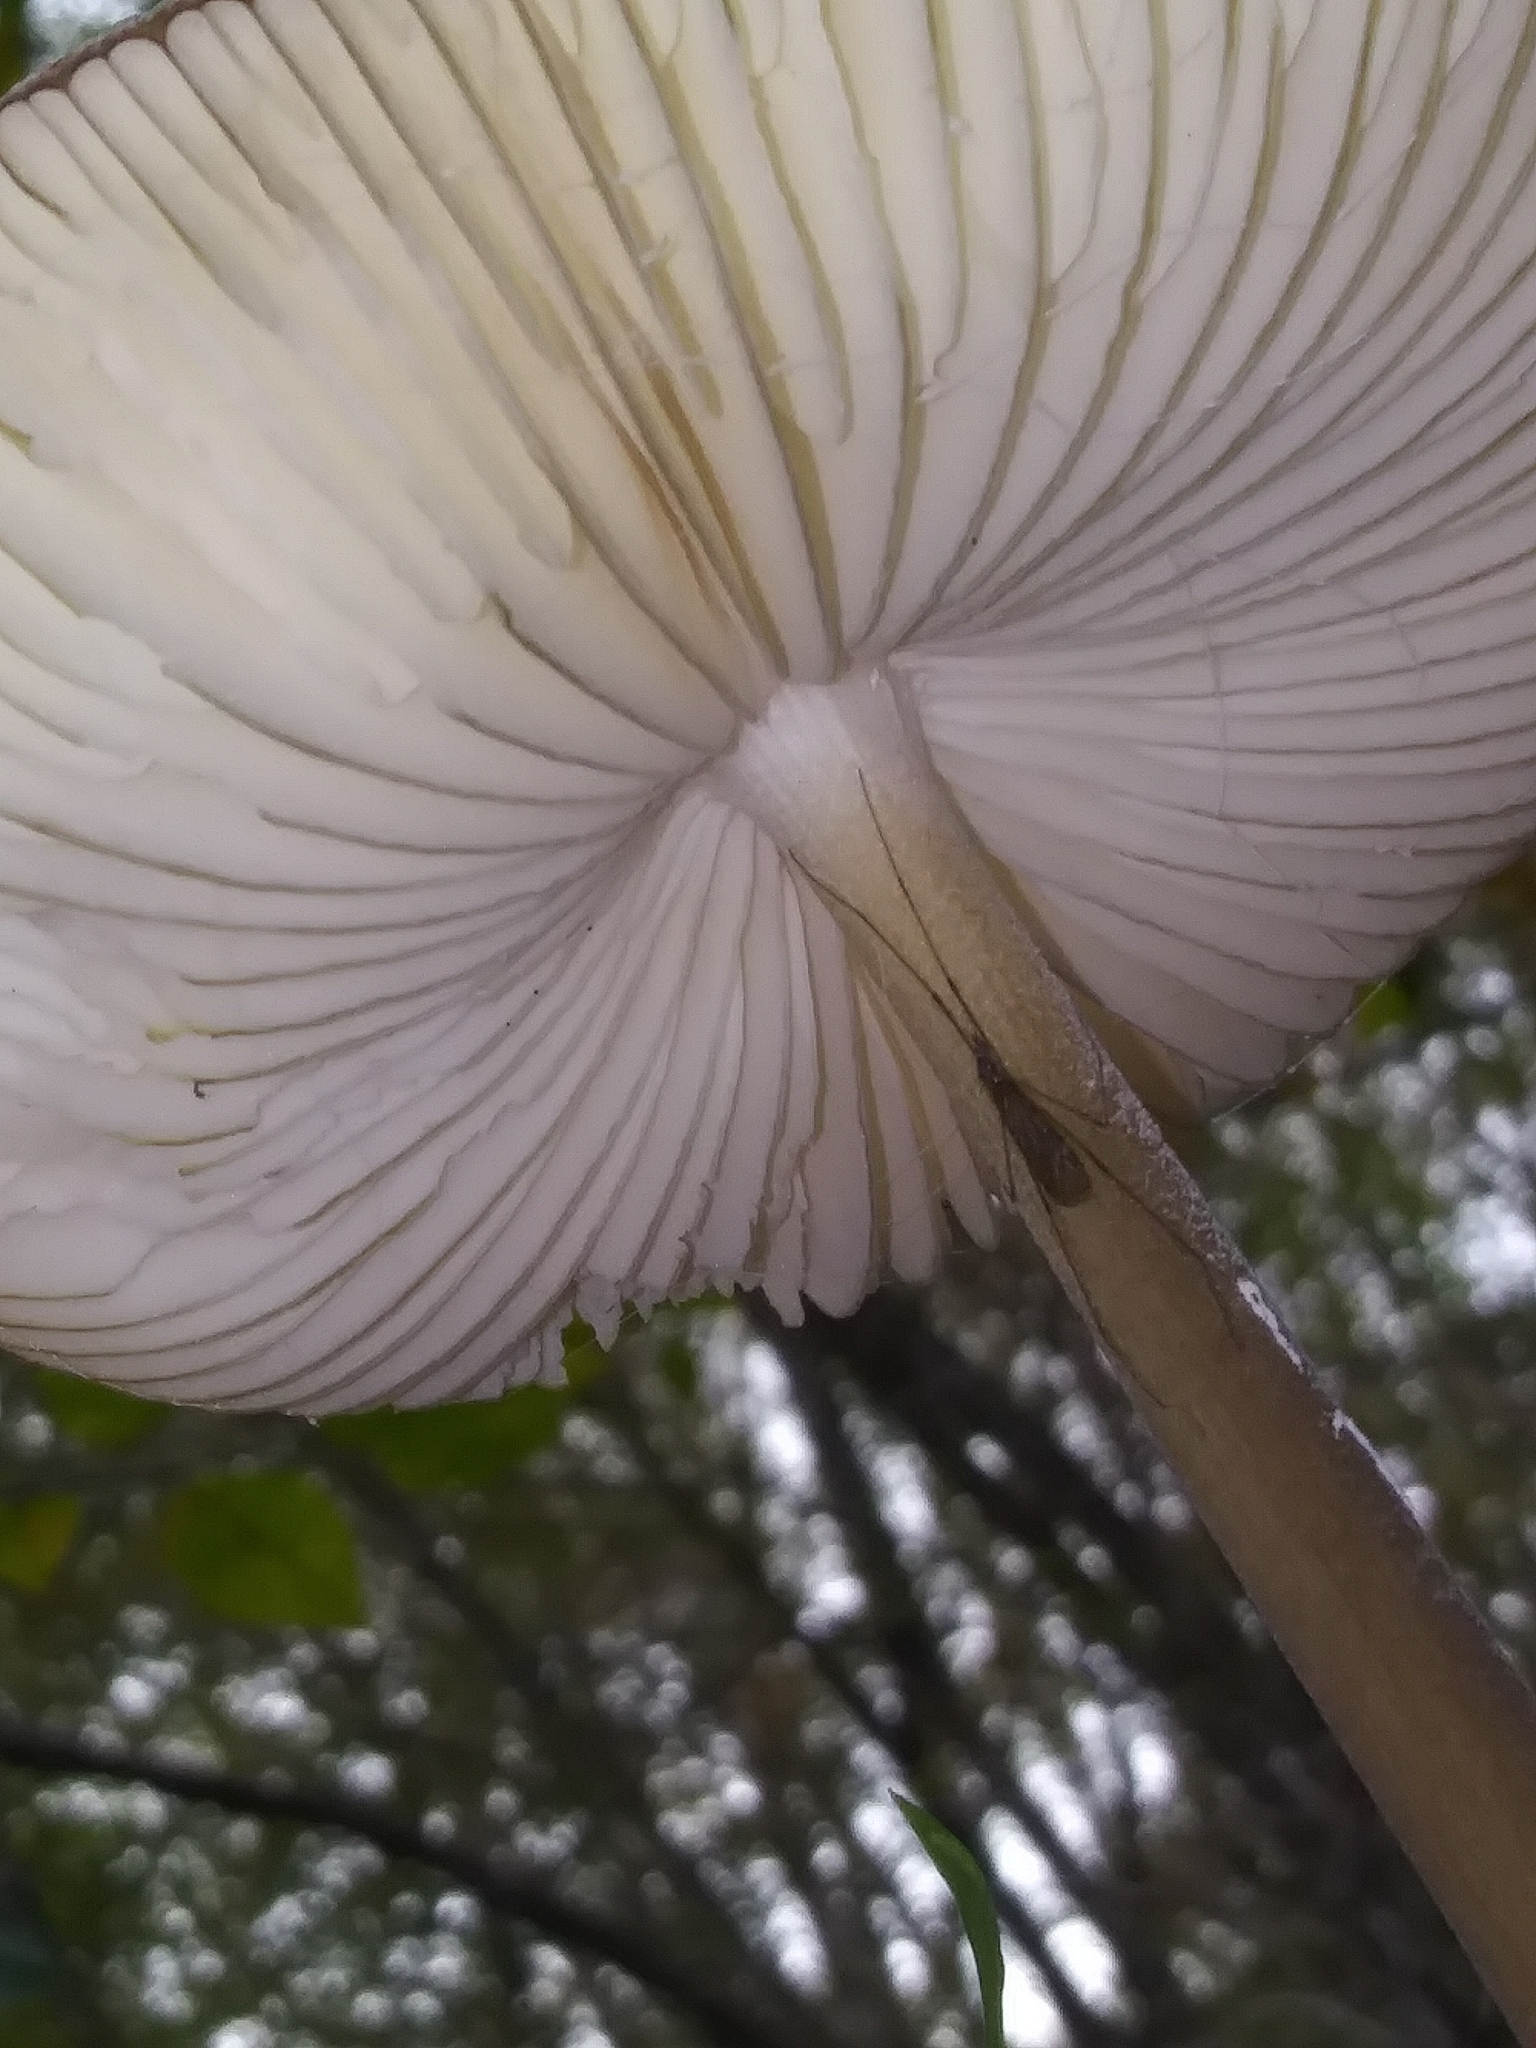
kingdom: Fungi
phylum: Basidiomycota
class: Agaricomycetes
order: Agaricales
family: Physalacriaceae
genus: Hymenopellis
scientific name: Hymenopellis furfuracea
